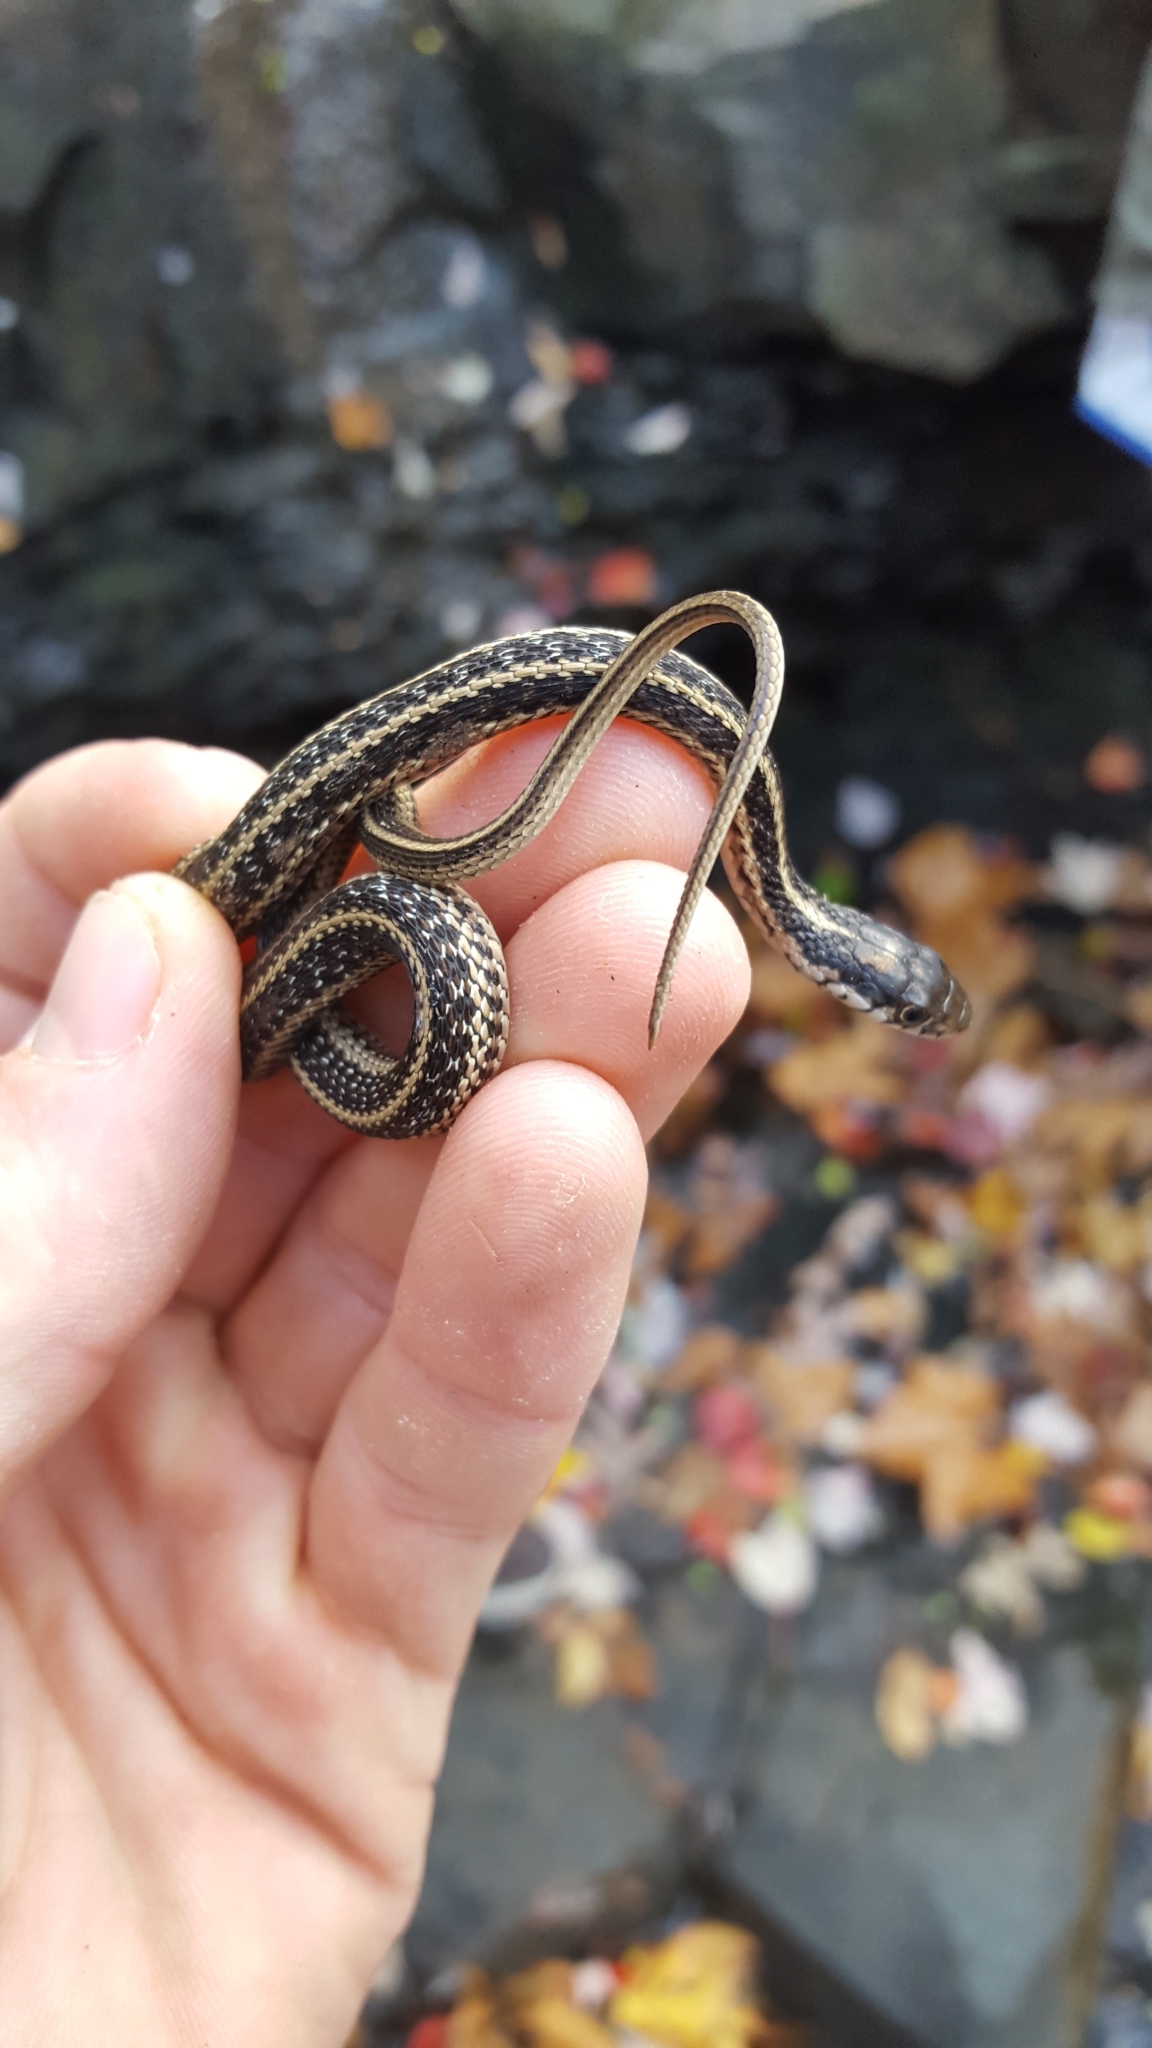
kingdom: Animalia
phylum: Chordata
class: Squamata
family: Colubridae
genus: Thamnophis
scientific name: Thamnophis sirtalis
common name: Common garter snake
